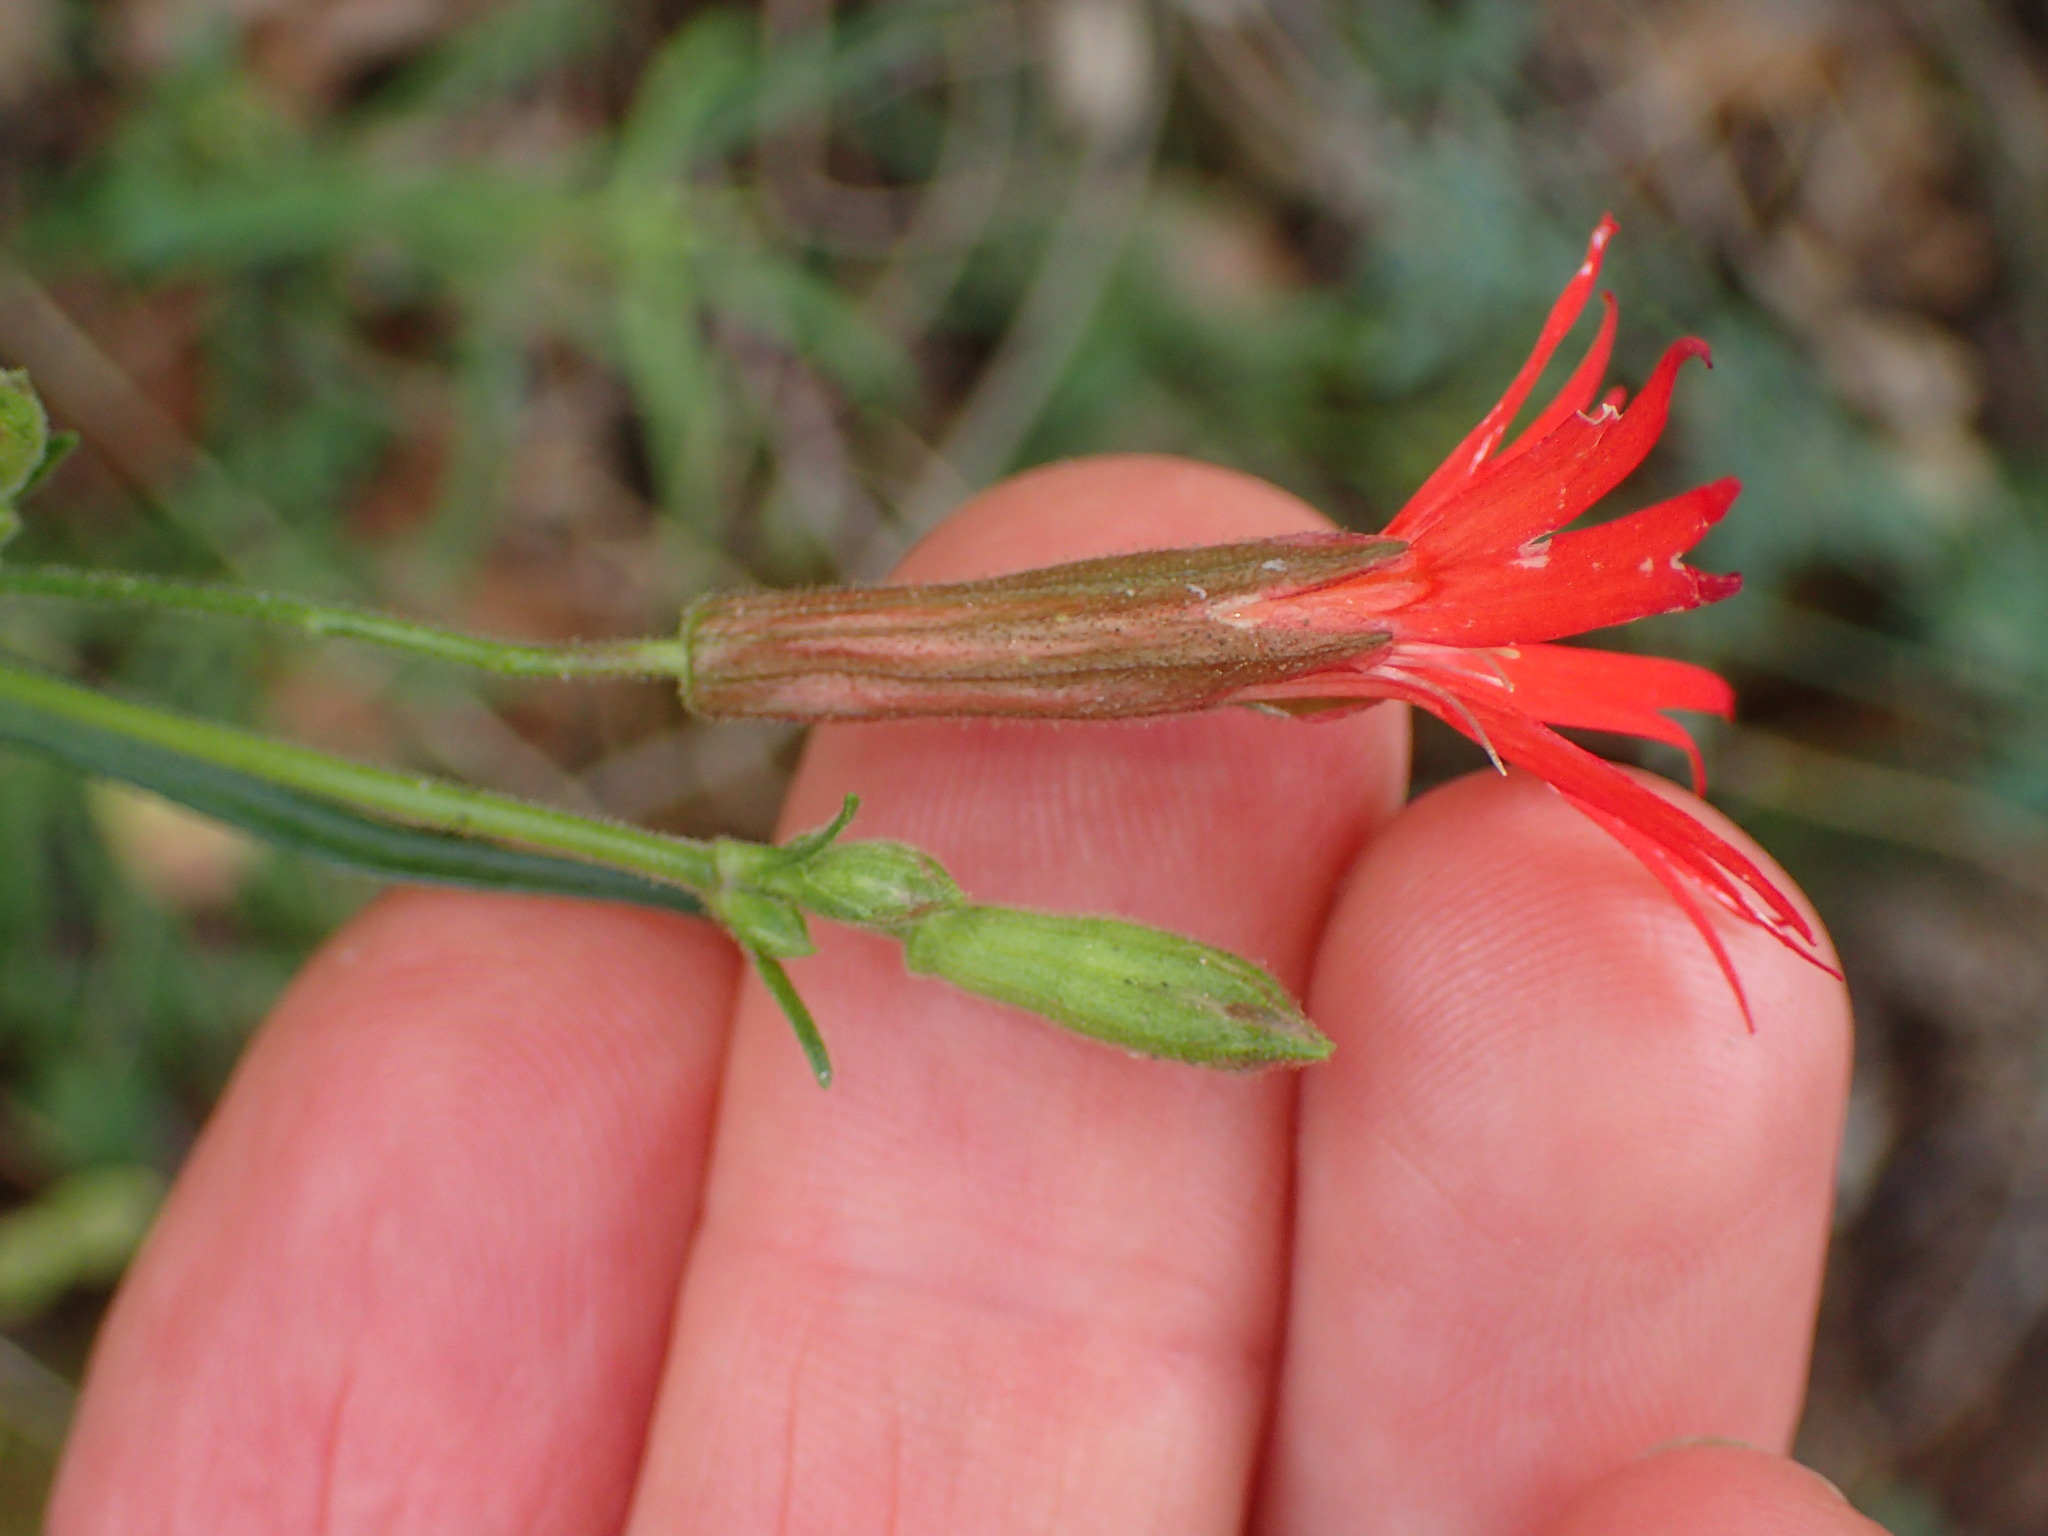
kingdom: Plantae
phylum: Tracheophyta
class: Magnoliopsida
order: Caryophyllales
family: Caryophyllaceae
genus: Silene
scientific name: Silene laciniata
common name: Indian-pink
